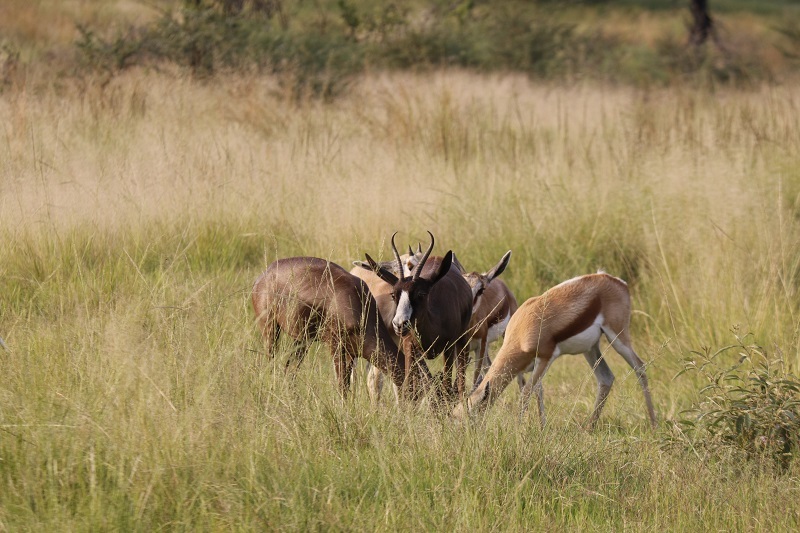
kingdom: Animalia
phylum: Chordata
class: Mammalia
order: Artiodactyla
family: Bovidae
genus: Antidorcas
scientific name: Antidorcas marsupialis
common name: Springbok
